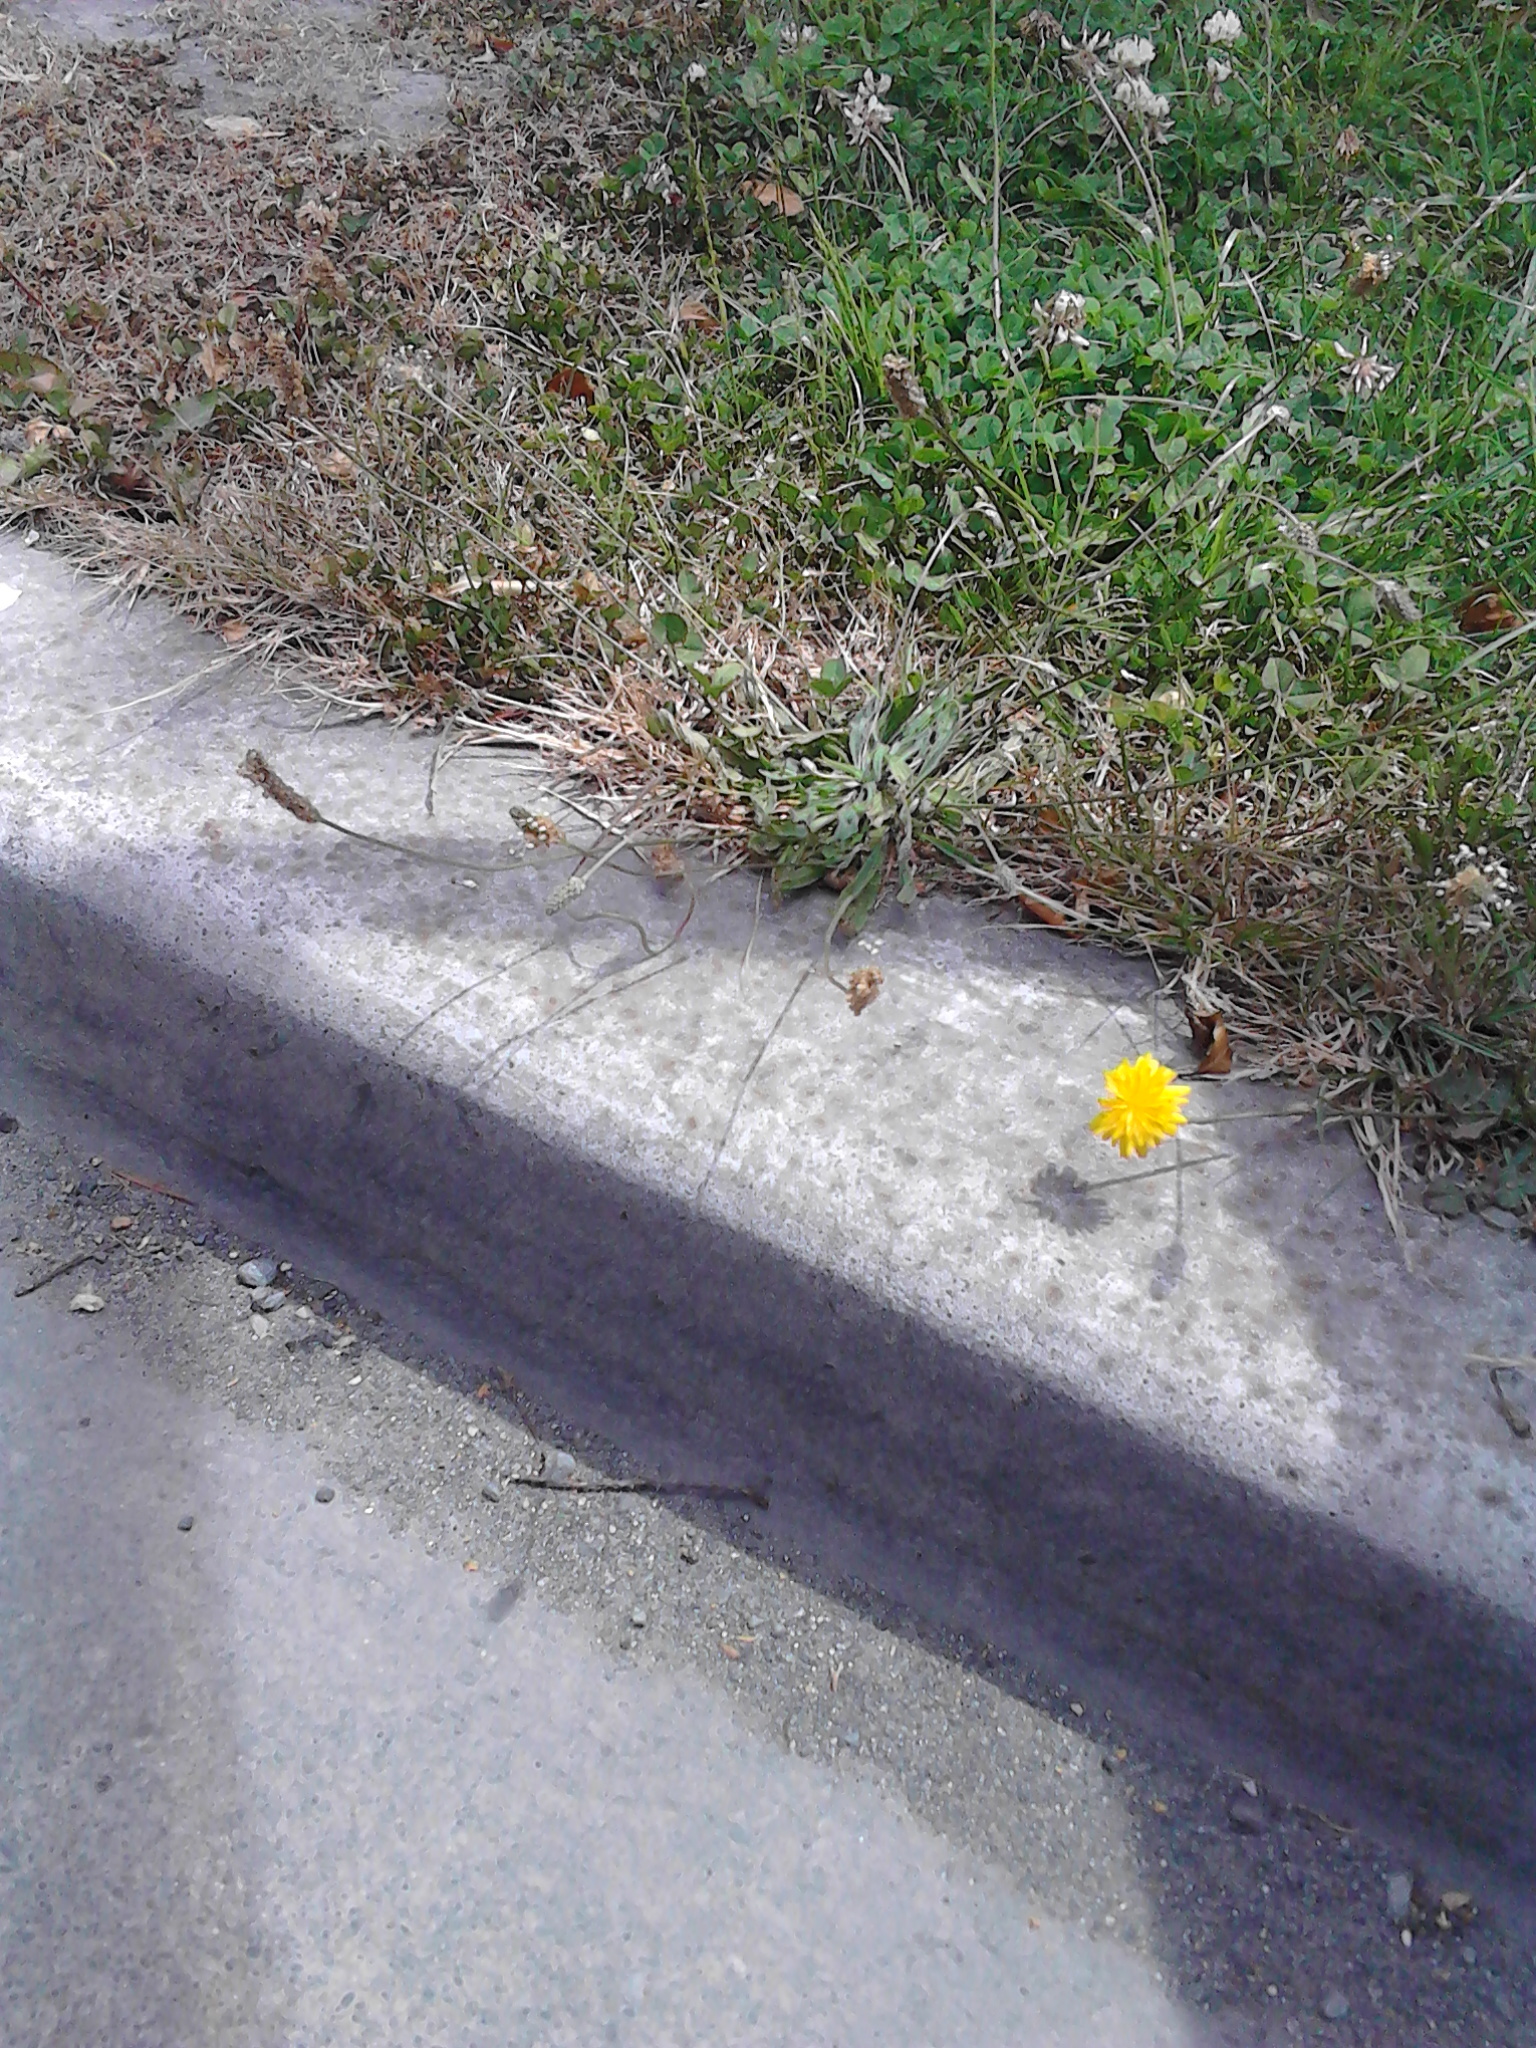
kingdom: Plantae
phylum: Tracheophyta
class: Magnoliopsida
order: Lamiales
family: Plantaginaceae
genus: Plantago
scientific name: Plantago lanceolata
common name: Ribwort plantain
